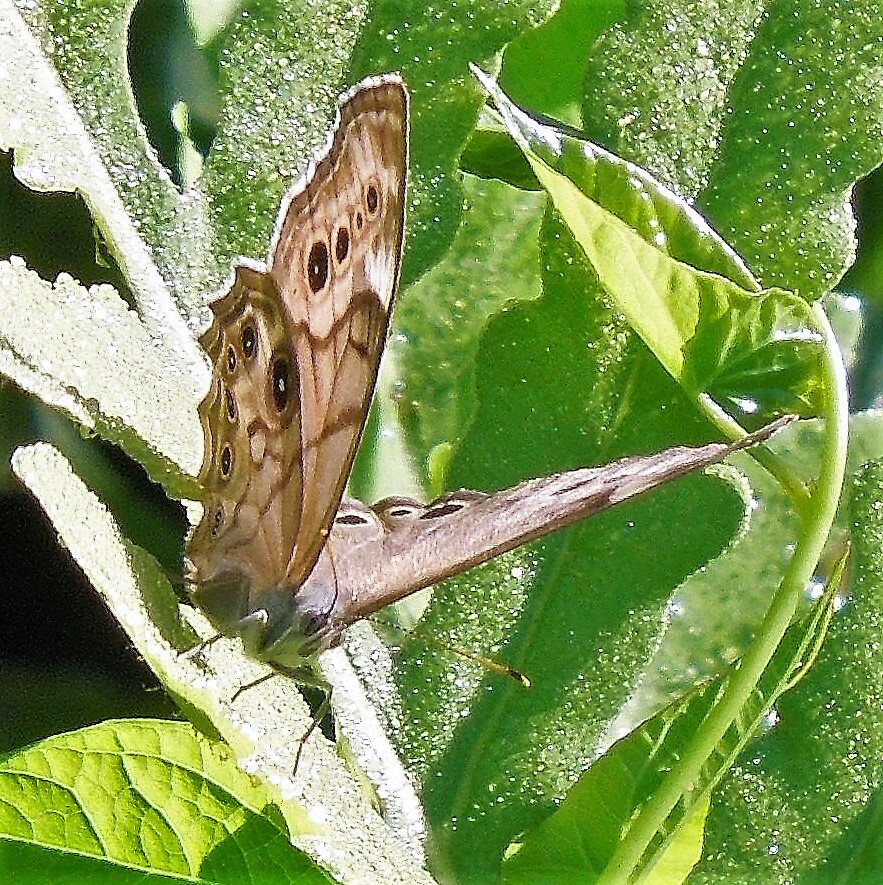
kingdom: Animalia
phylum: Arthropoda
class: Insecta
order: Lepidoptera
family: Nymphalidae
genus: Lethe
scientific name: Lethe anthedon
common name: Northern pearly-eye
